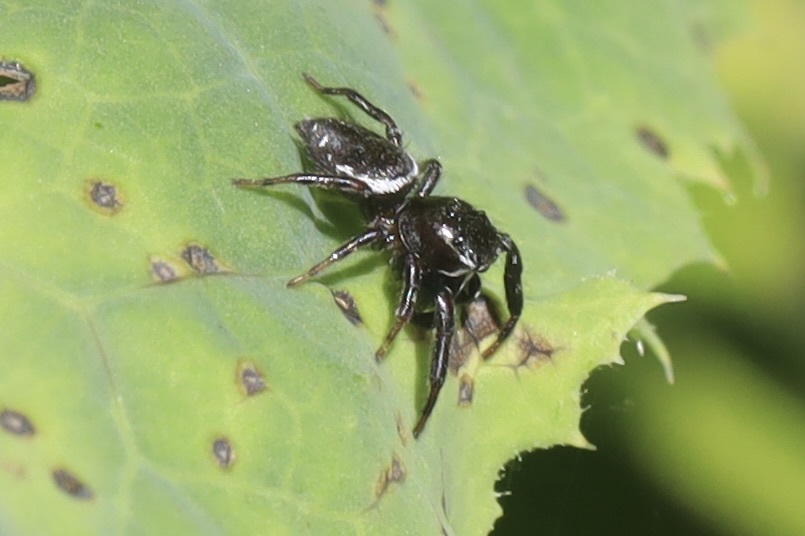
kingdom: Animalia
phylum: Arthropoda
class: Arachnida
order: Araneae
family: Salticidae
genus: Metaphidippus
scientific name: Metaphidippus manni
